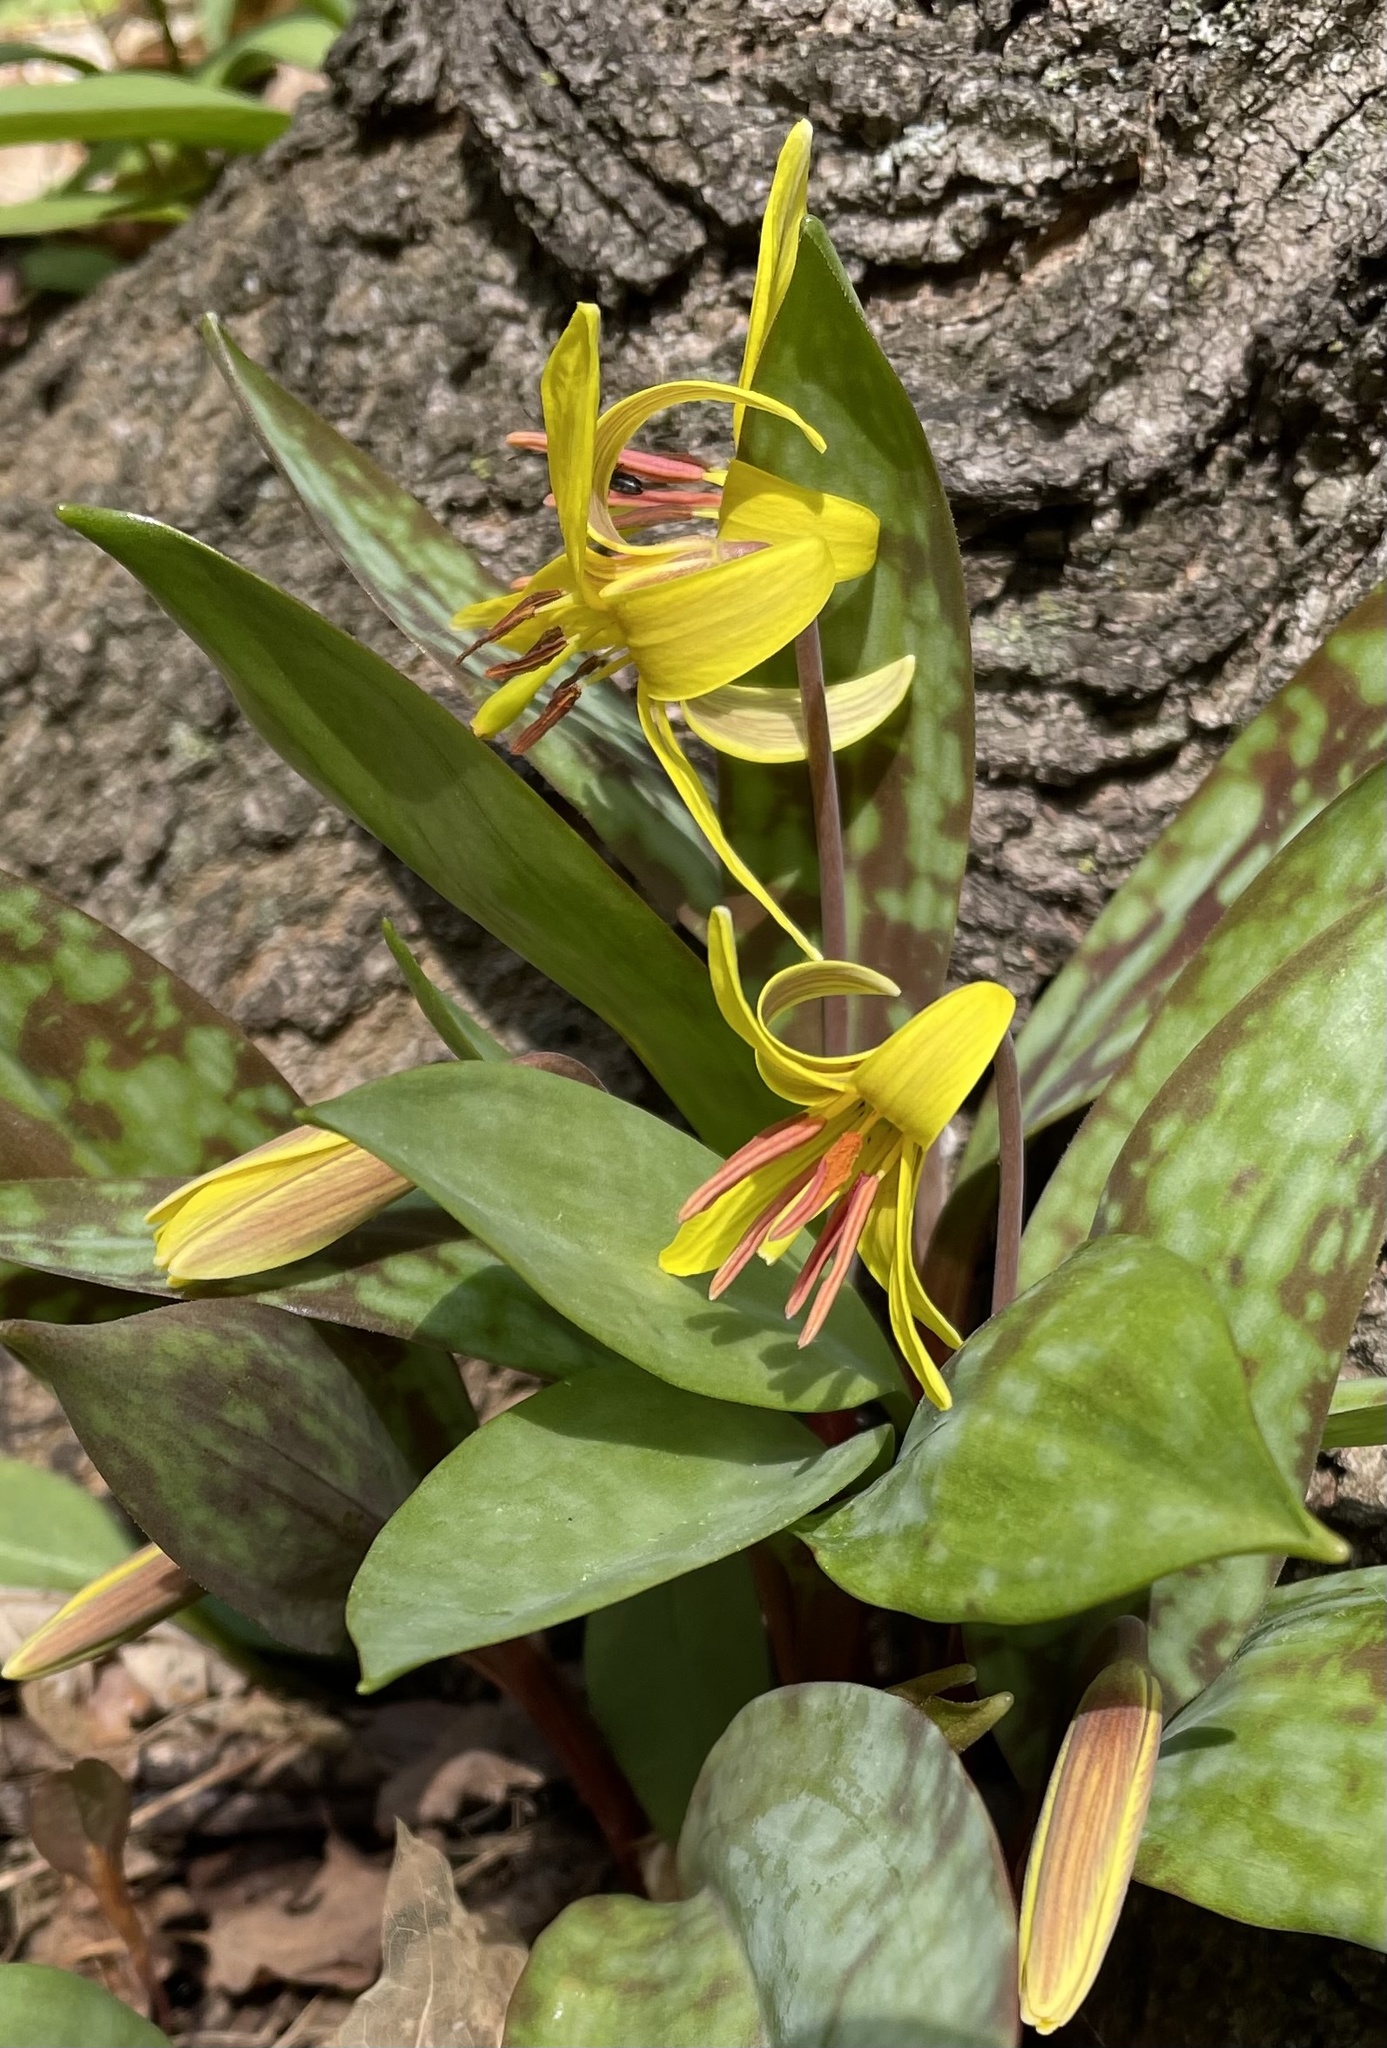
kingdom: Plantae
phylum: Tracheophyta
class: Liliopsida
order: Liliales
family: Liliaceae
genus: Erythronium
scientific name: Erythronium americanum
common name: Yellow adder's-tongue
